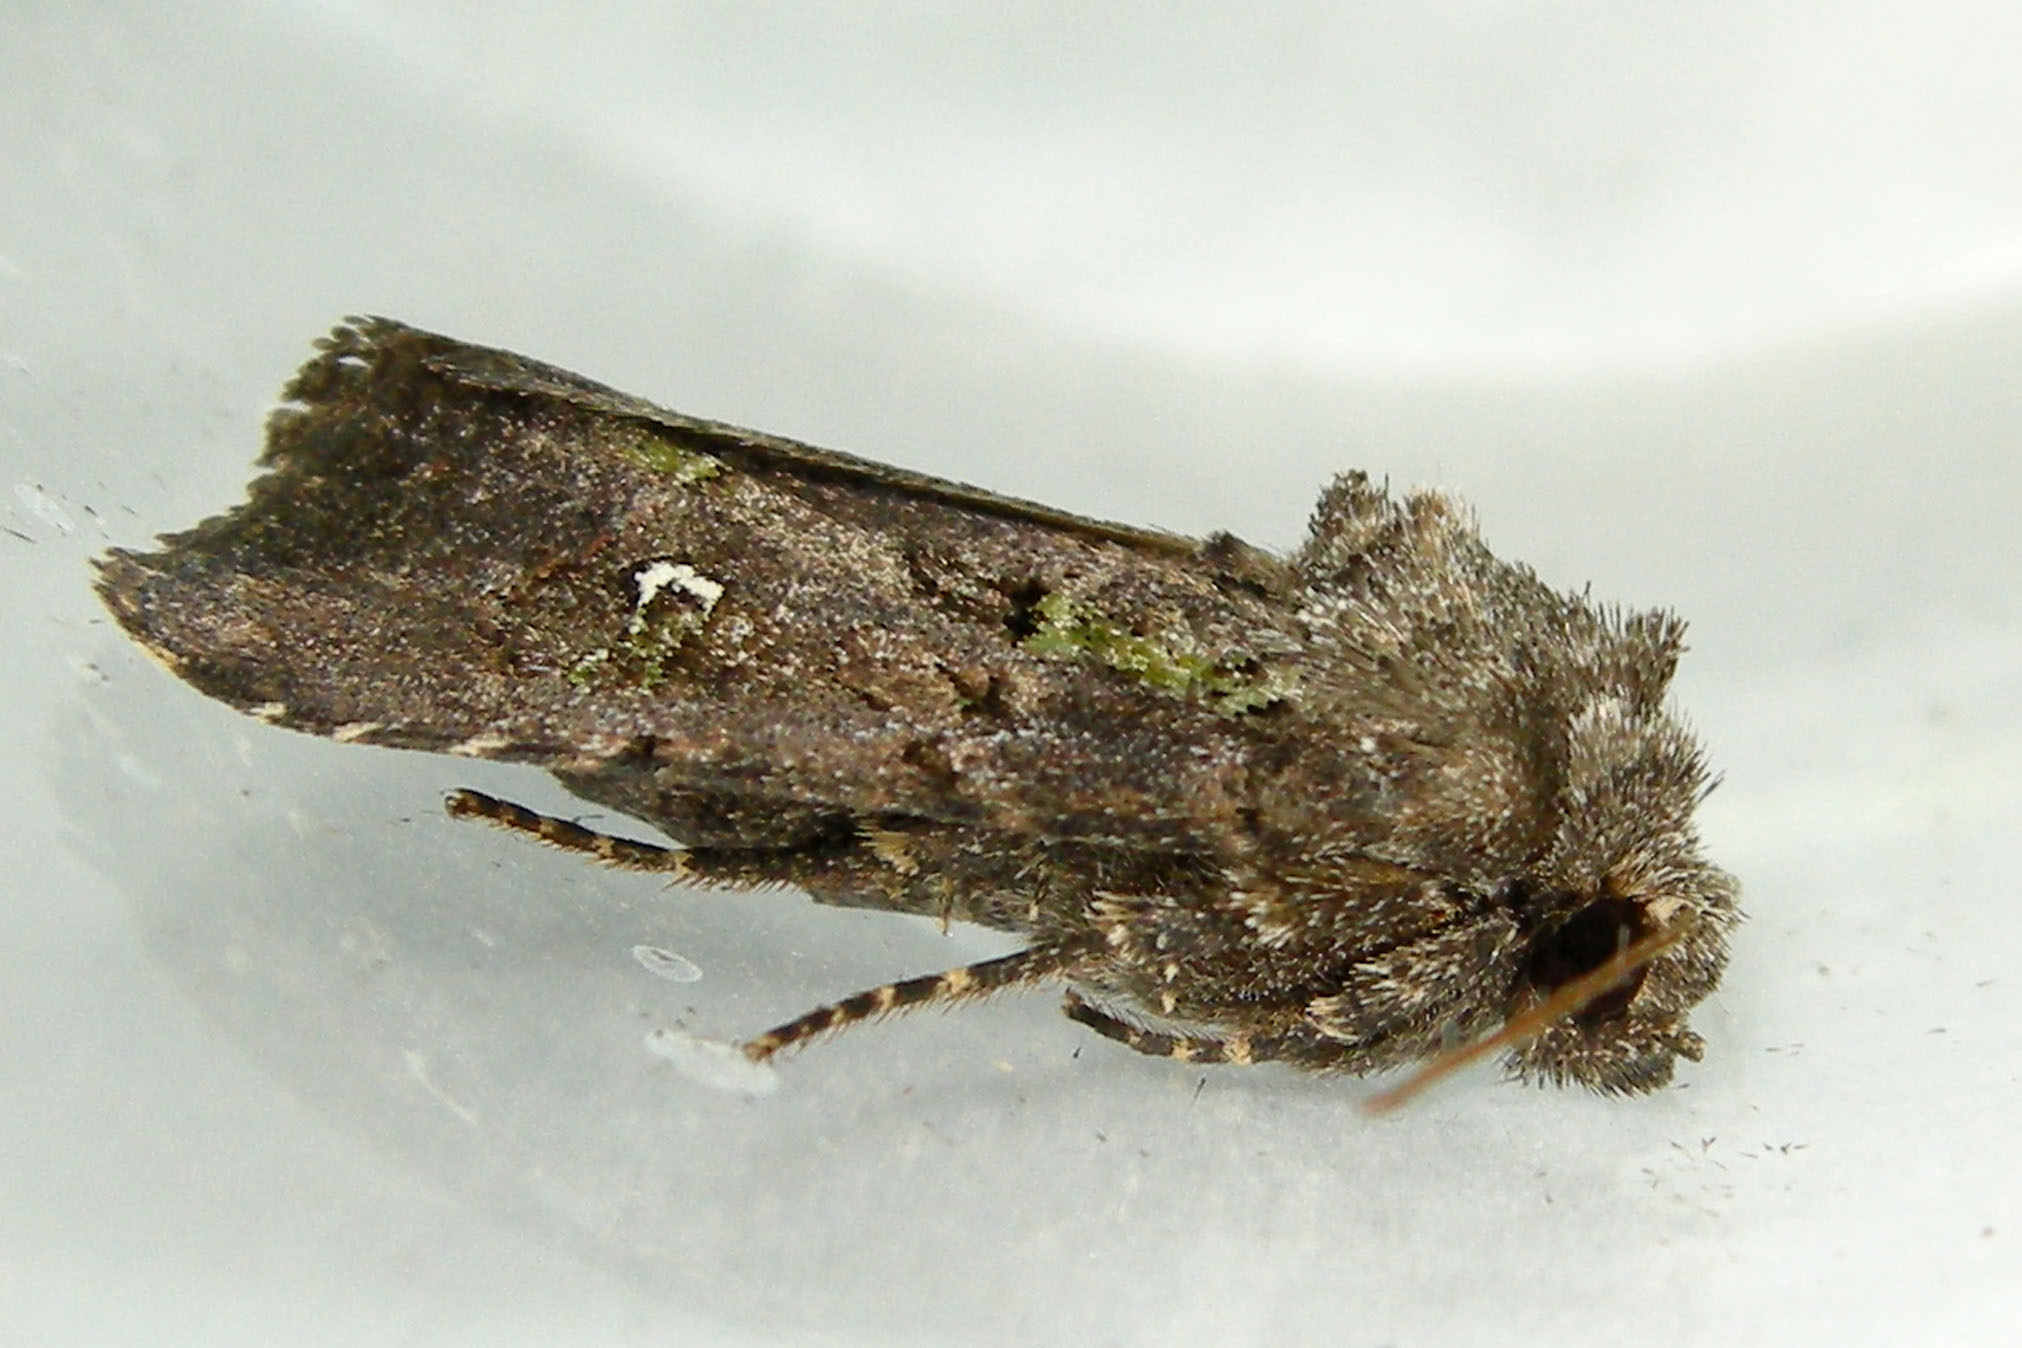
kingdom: Animalia
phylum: Arthropoda
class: Insecta
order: Lepidoptera
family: Noctuidae
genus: Lacinipolia
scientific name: Lacinipolia renigera
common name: Kidney-spotted minor
